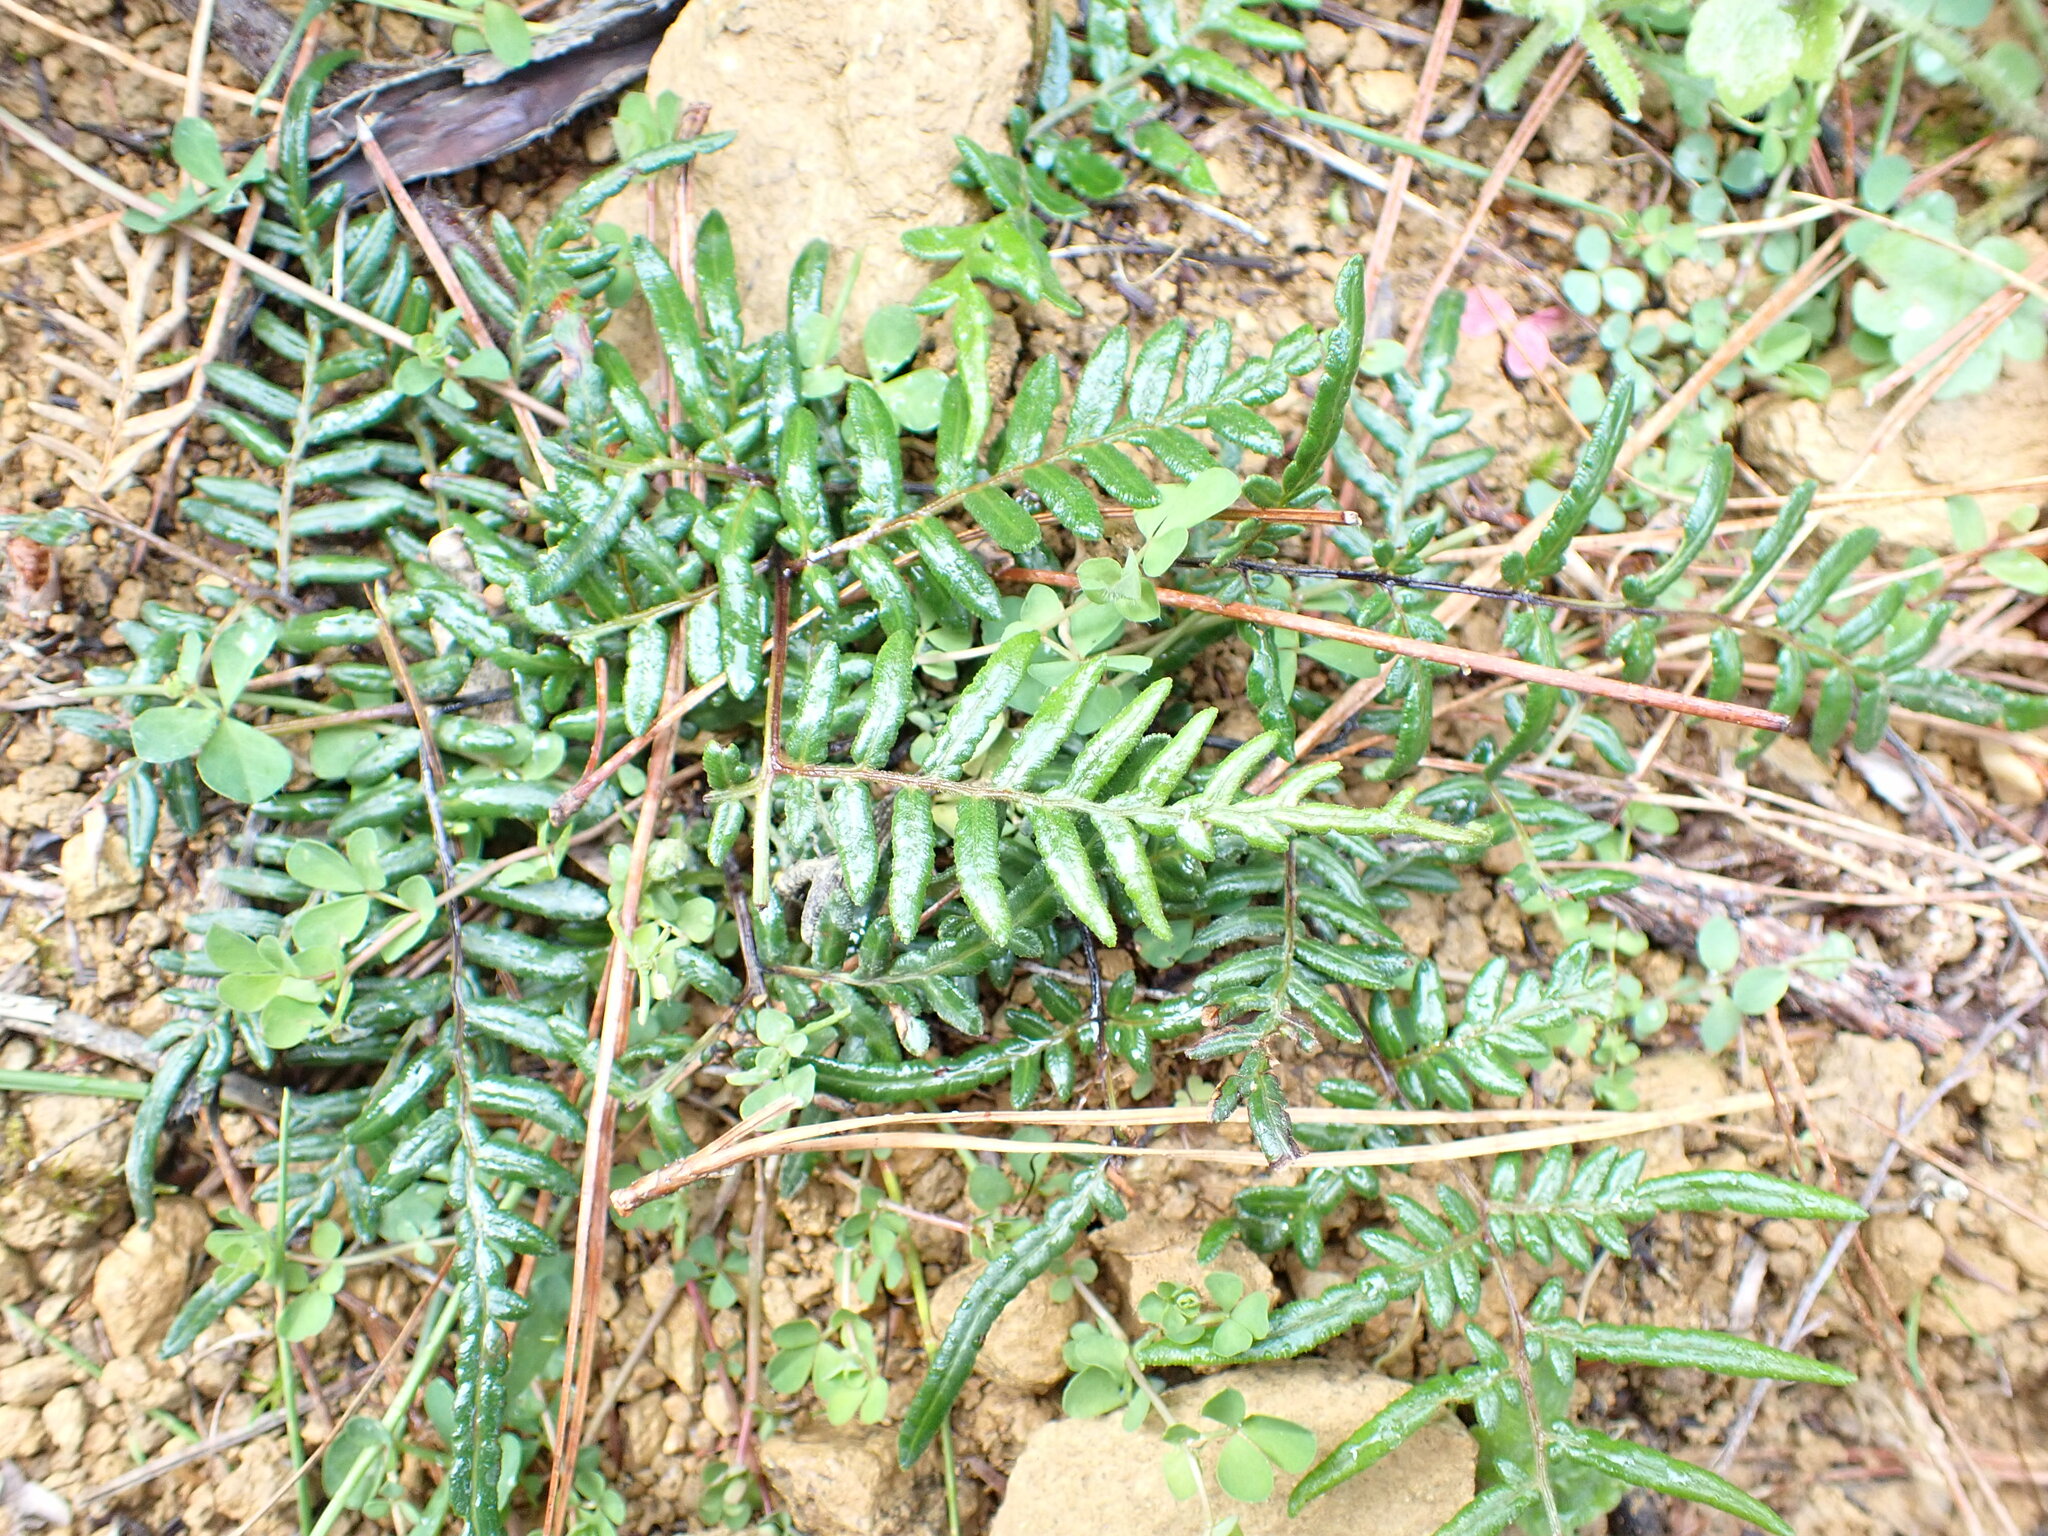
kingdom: Plantae
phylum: Tracheophyta
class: Polypodiopsida
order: Polypodiales
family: Dennstaedtiaceae
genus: Pteridium
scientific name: Pteridium esculentum
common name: Bracken fern
